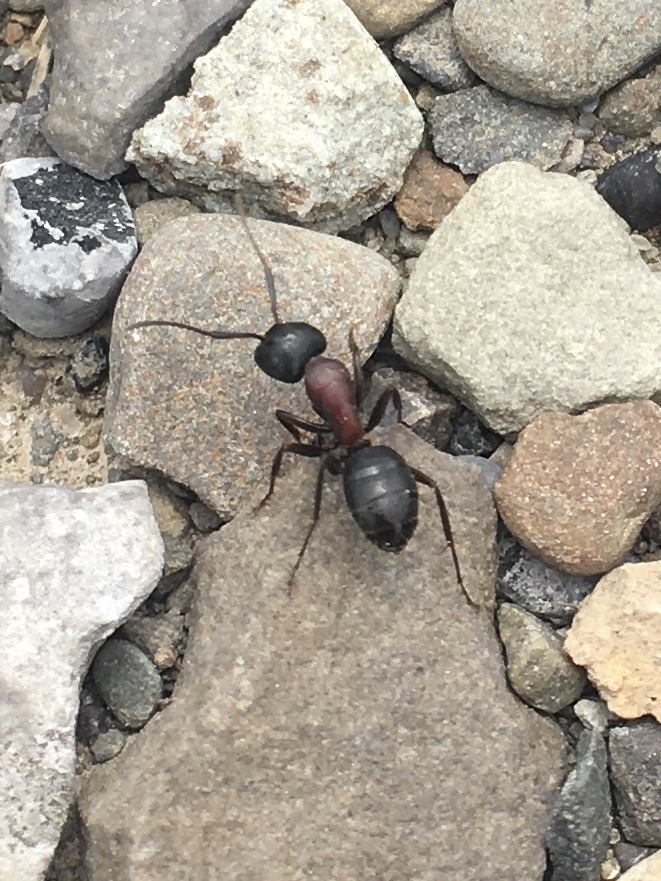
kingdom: Animalia
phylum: Arthropoda
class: Insecta
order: Hymenoptera
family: Formicidae
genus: Camponotus
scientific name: Camponotus novaeboracensis
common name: New york carpenter ant
